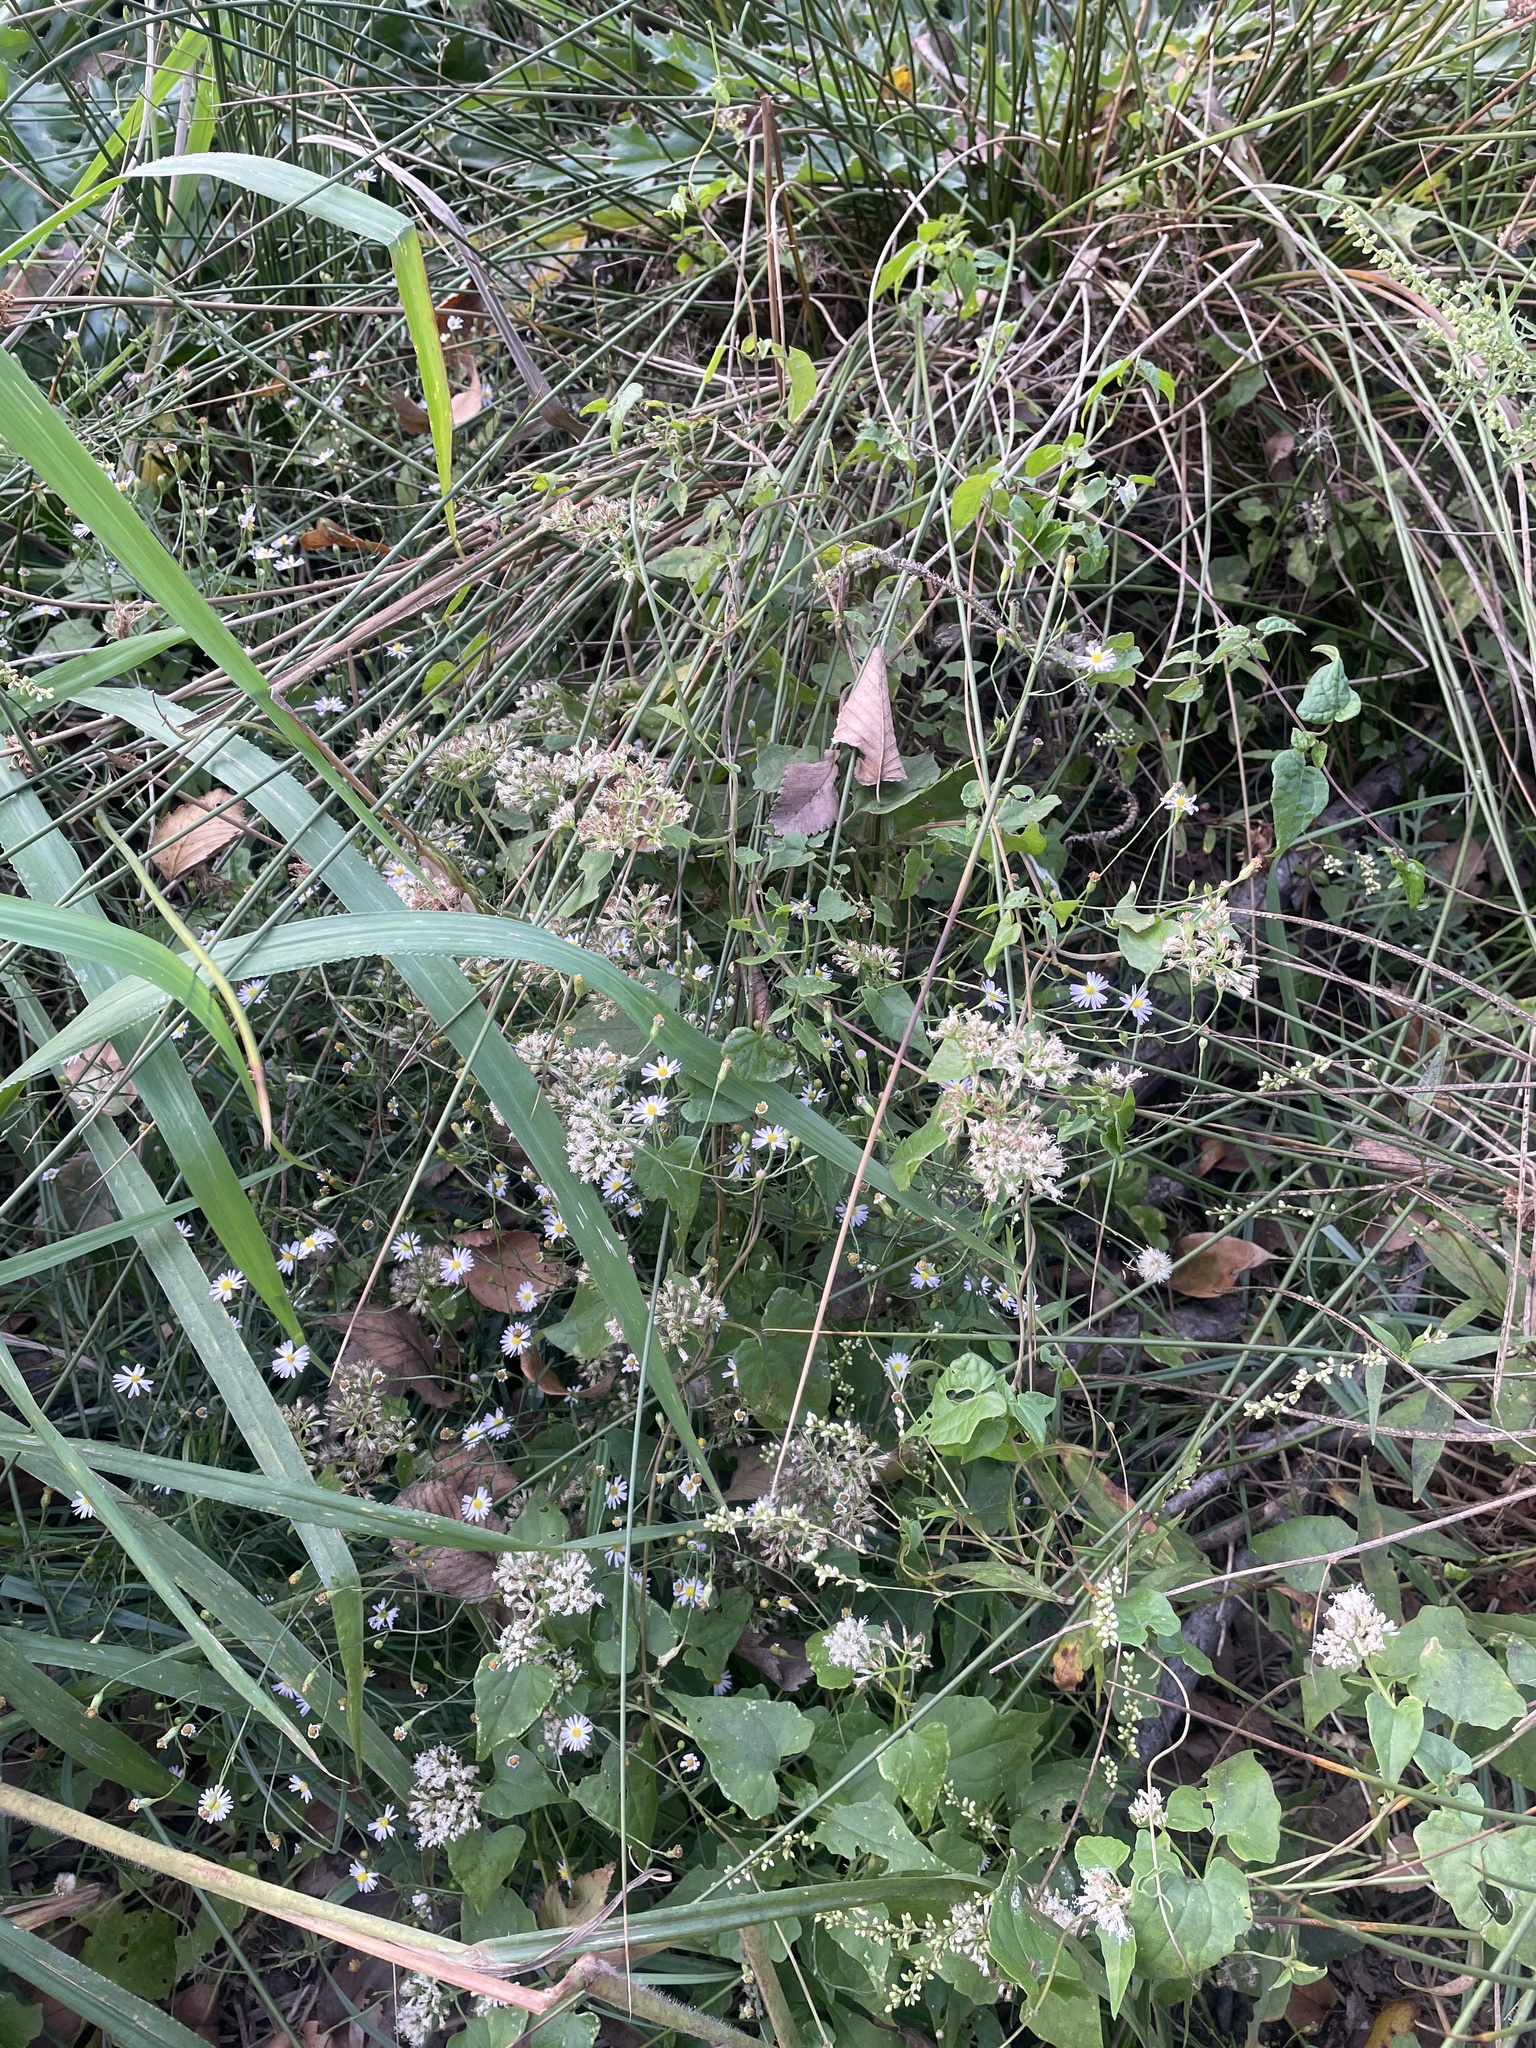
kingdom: Plantae
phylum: Tracheophyta
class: Magnoliopsida
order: Asterales
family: Asteraceae
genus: Mikania
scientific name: Mikania scandens
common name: Climbing hempvine
